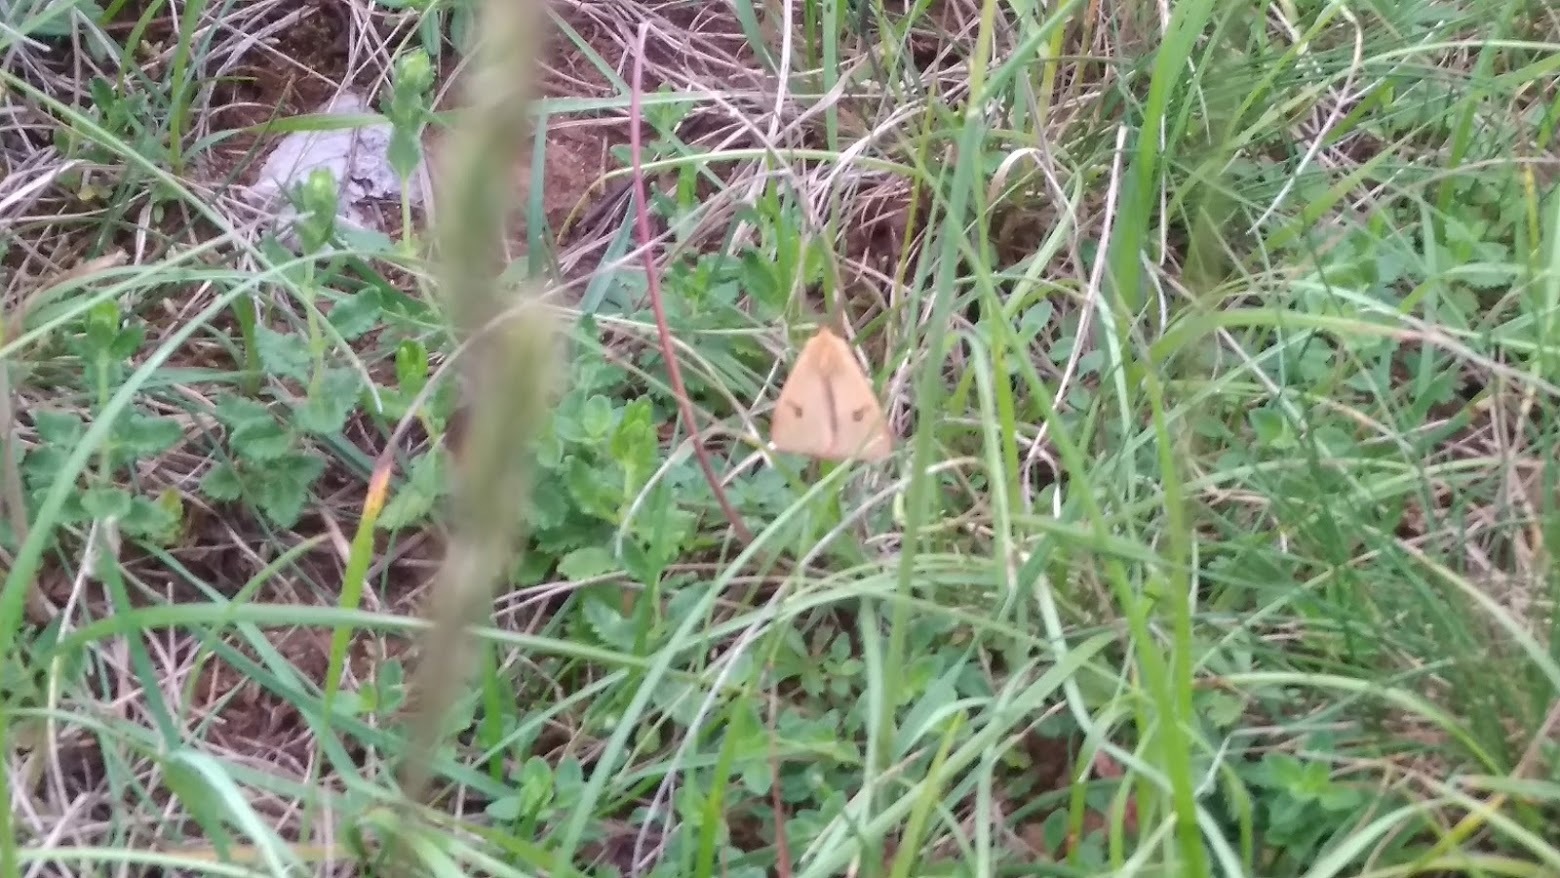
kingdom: Animalia
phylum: Arthropoda
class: Insecta
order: Lepidoptera
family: Erebidae
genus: Diacrisia
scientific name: Diacrisia sannio
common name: Clouded buff
